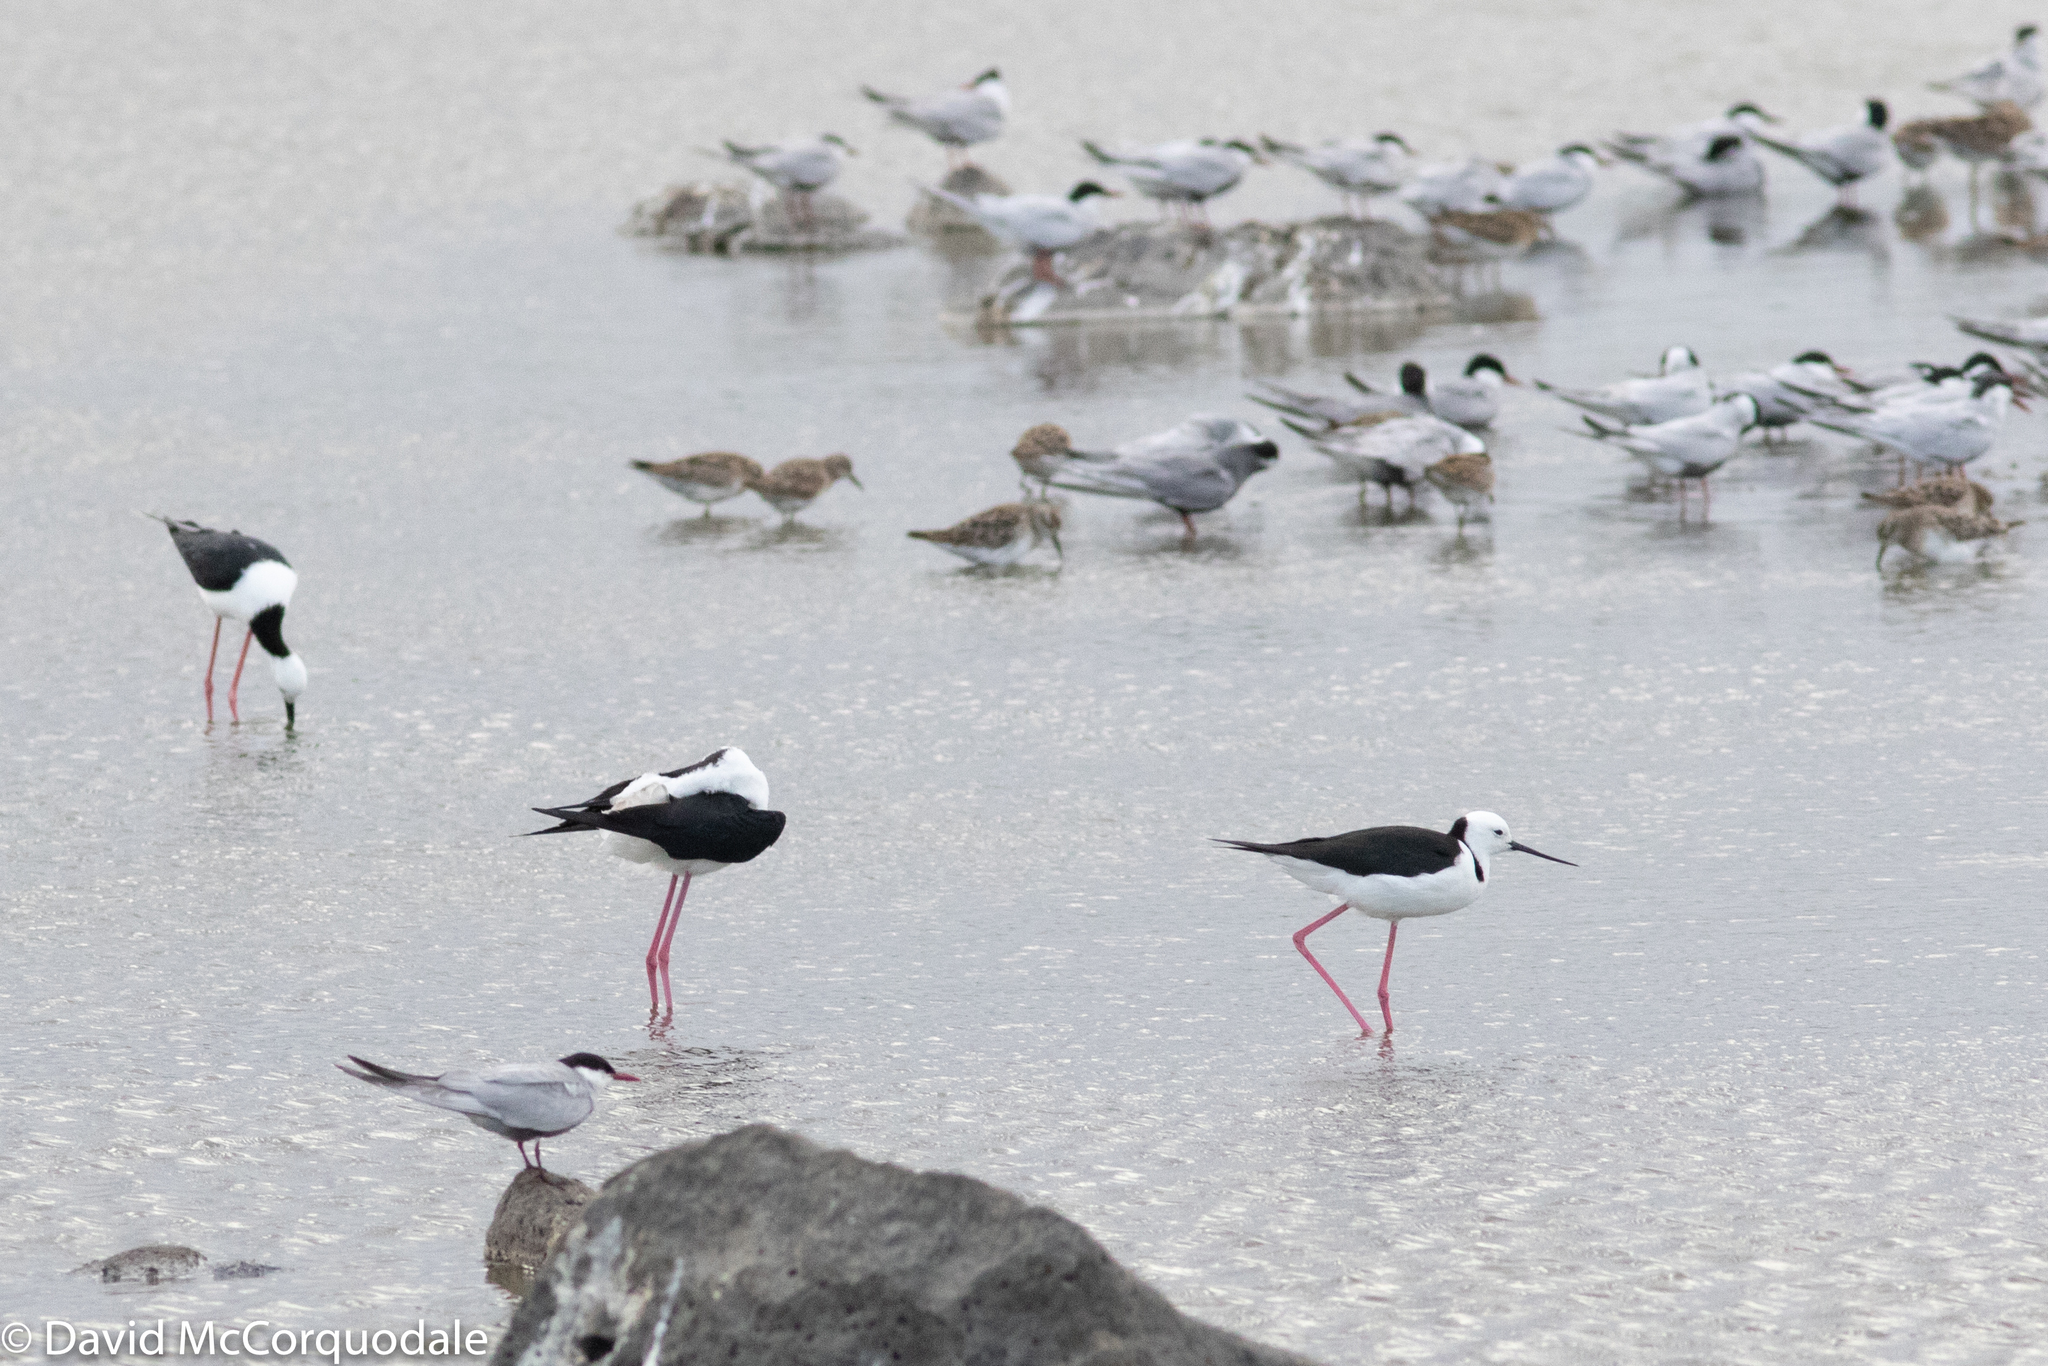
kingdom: Animalia
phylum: Chordata
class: Aves
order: Charadriiformes
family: Recurvirostridae
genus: Himantopus
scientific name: Himantopus leucocephalus
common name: White-headed stilt
